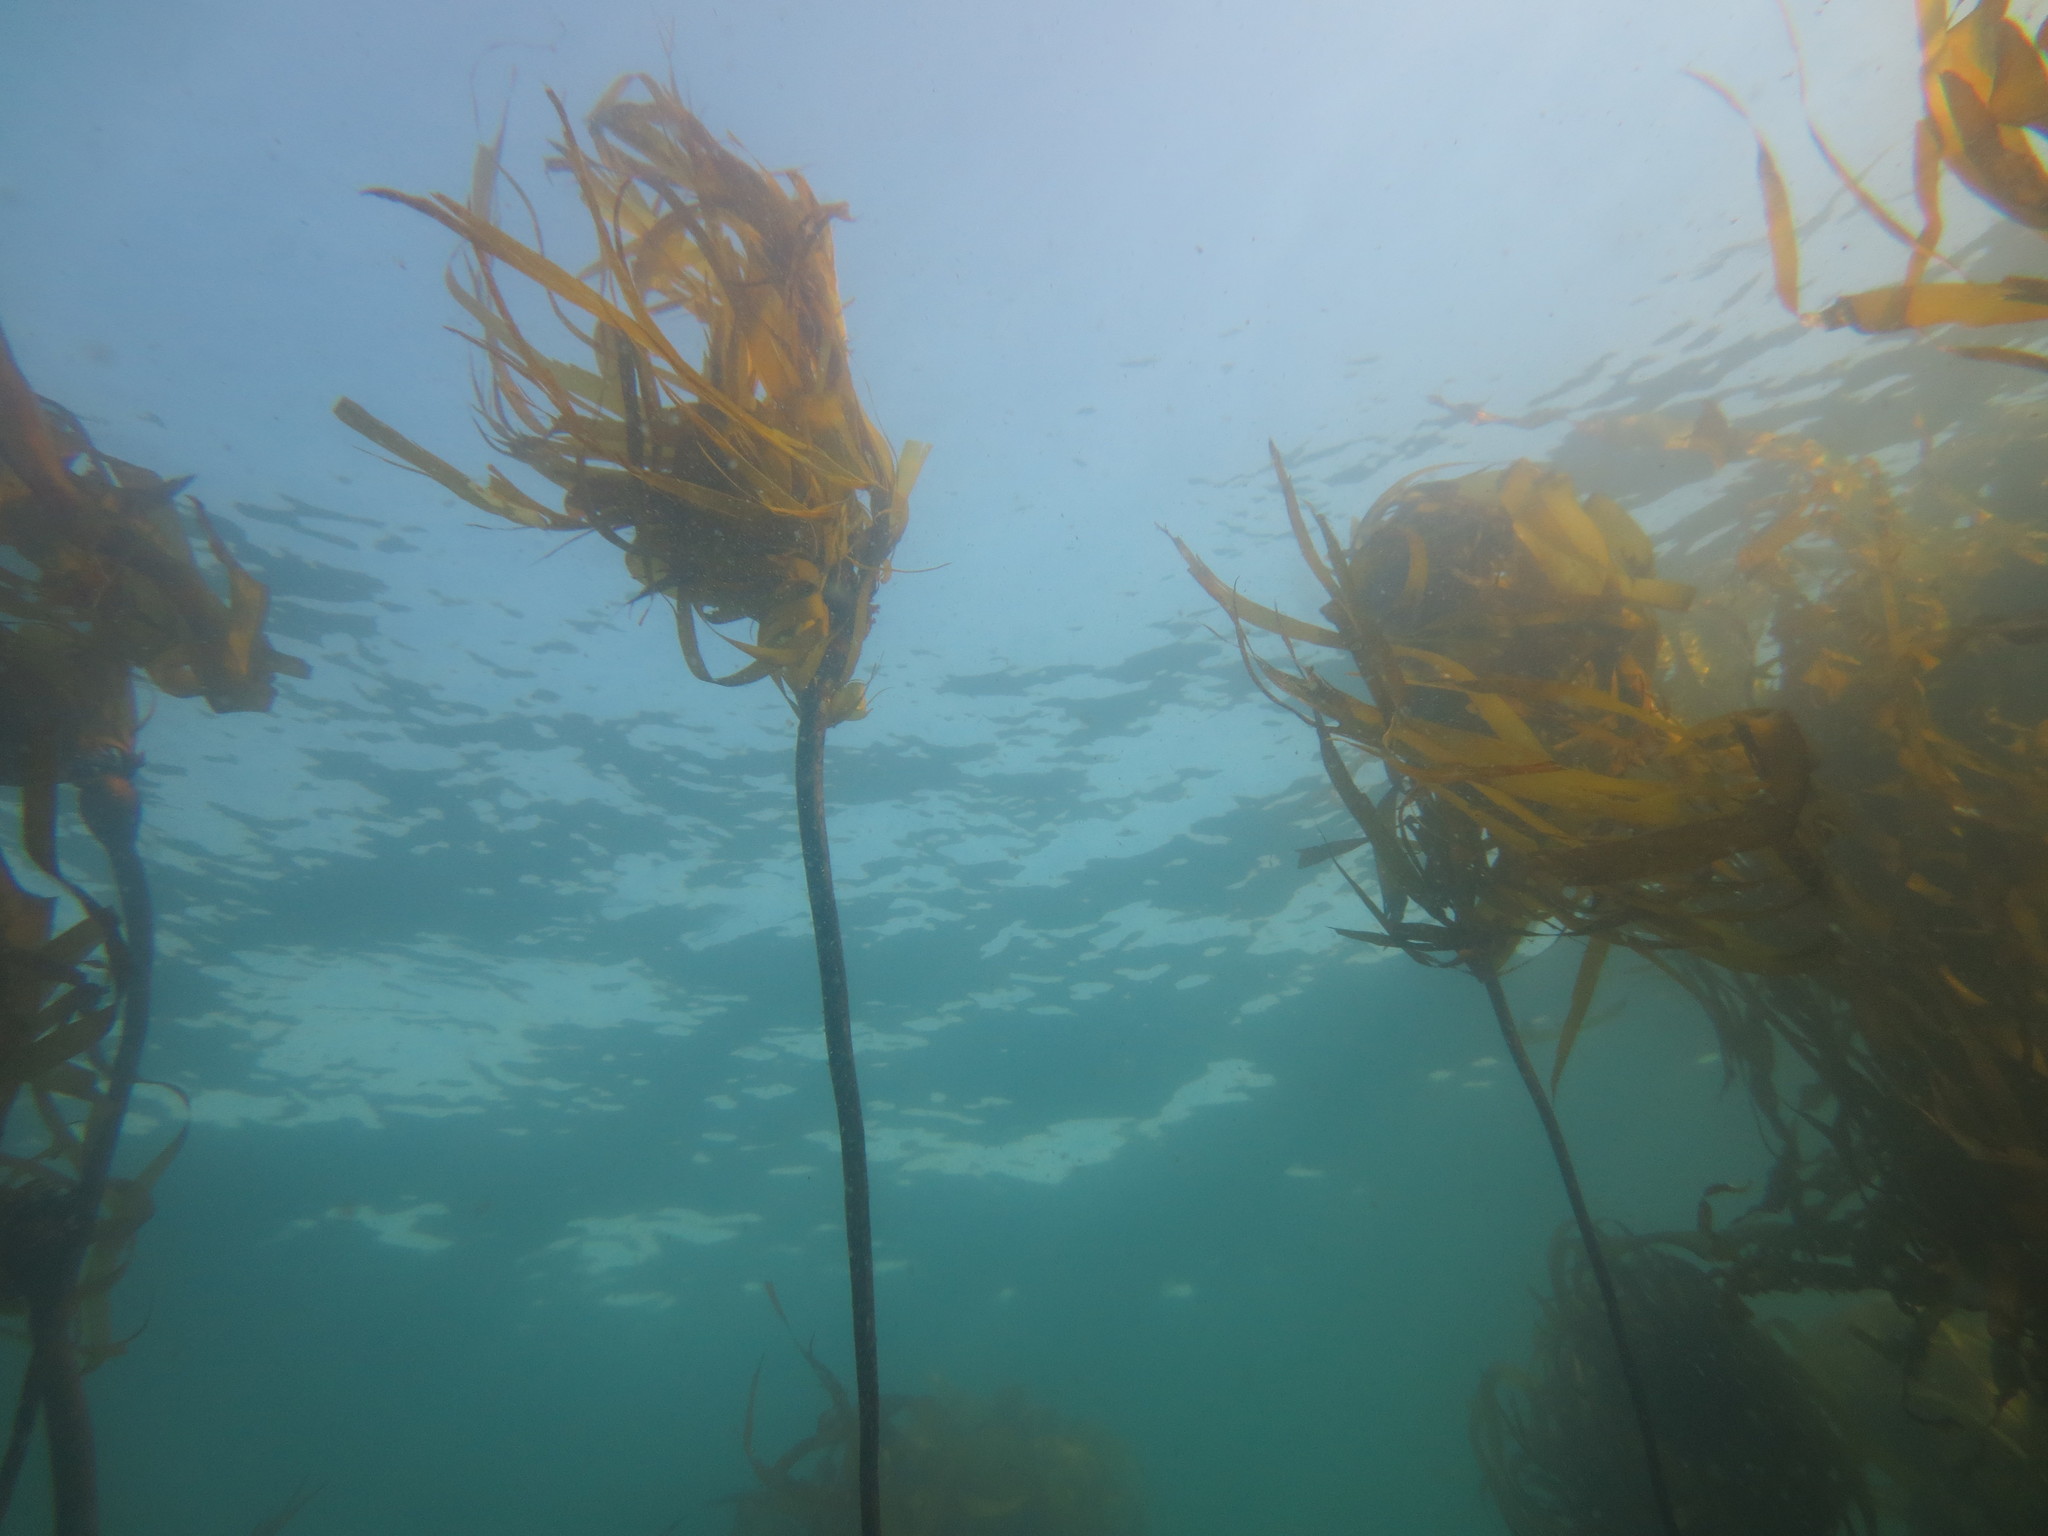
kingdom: Chromista
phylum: Ochrophyta
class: Phaeophyceae
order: Laminariales
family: Laminariaceae
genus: Nereocystis
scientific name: Nereocystis luetkeana
